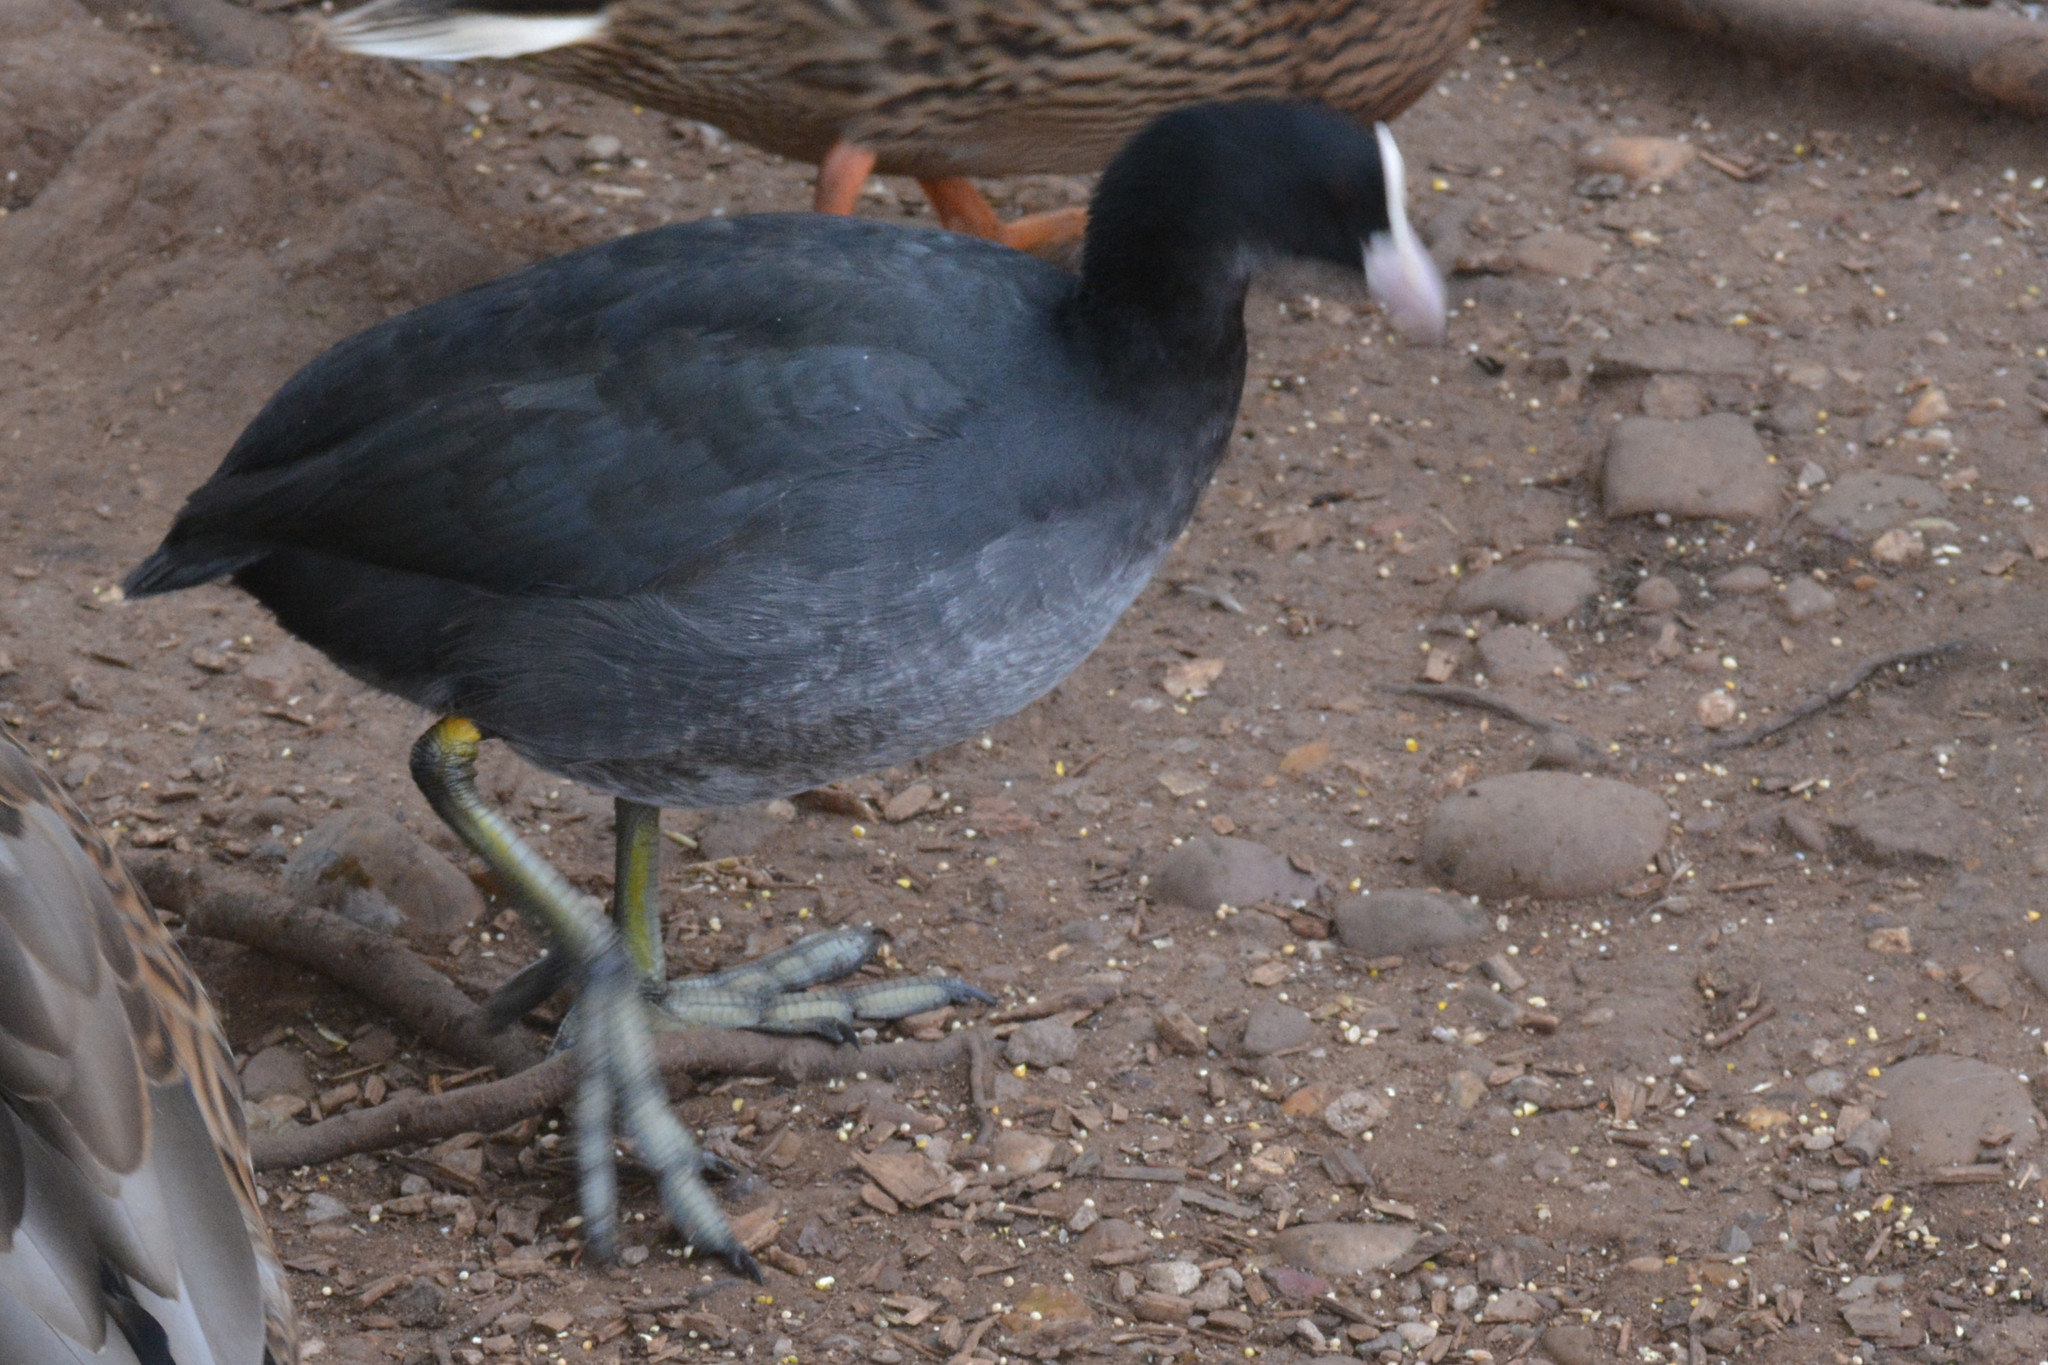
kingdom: Animalia
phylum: Chordata
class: Aves
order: Gruiformes
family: Rallidae
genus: Fulica
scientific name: Fulica atra
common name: Eurasian coot
